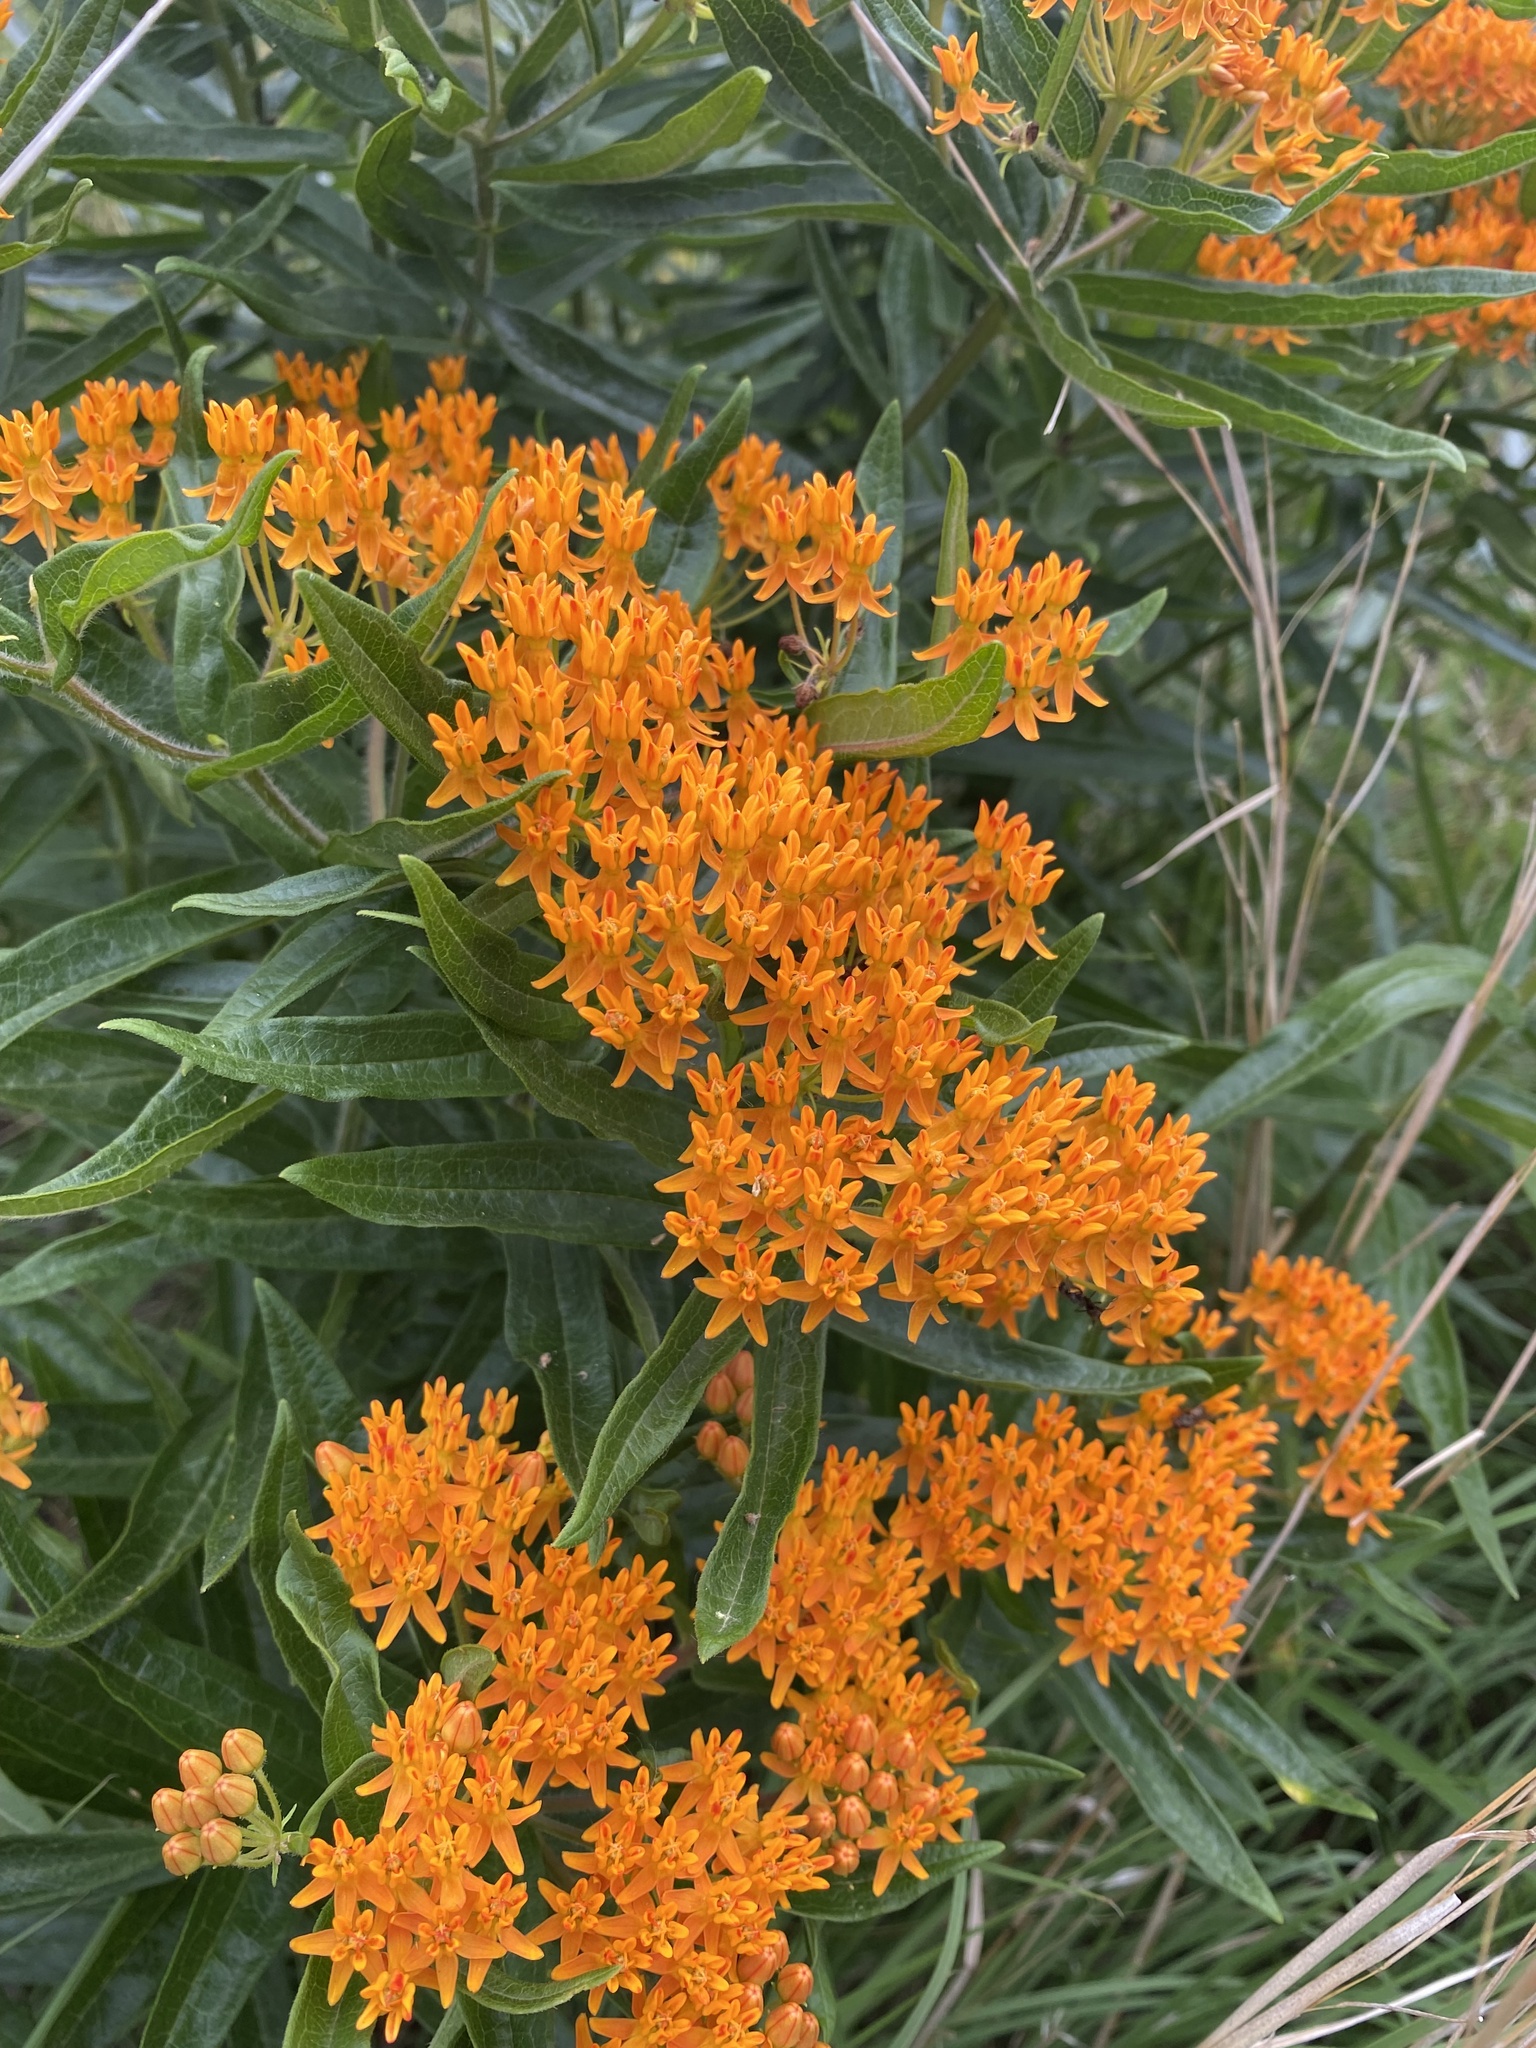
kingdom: Plantae
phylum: Tracheophyta
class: Magnoliopsida
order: Gentianales
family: Apocynaceae
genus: Asclepias
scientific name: Asclepias tuberosa
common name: Butterfly milkweed
